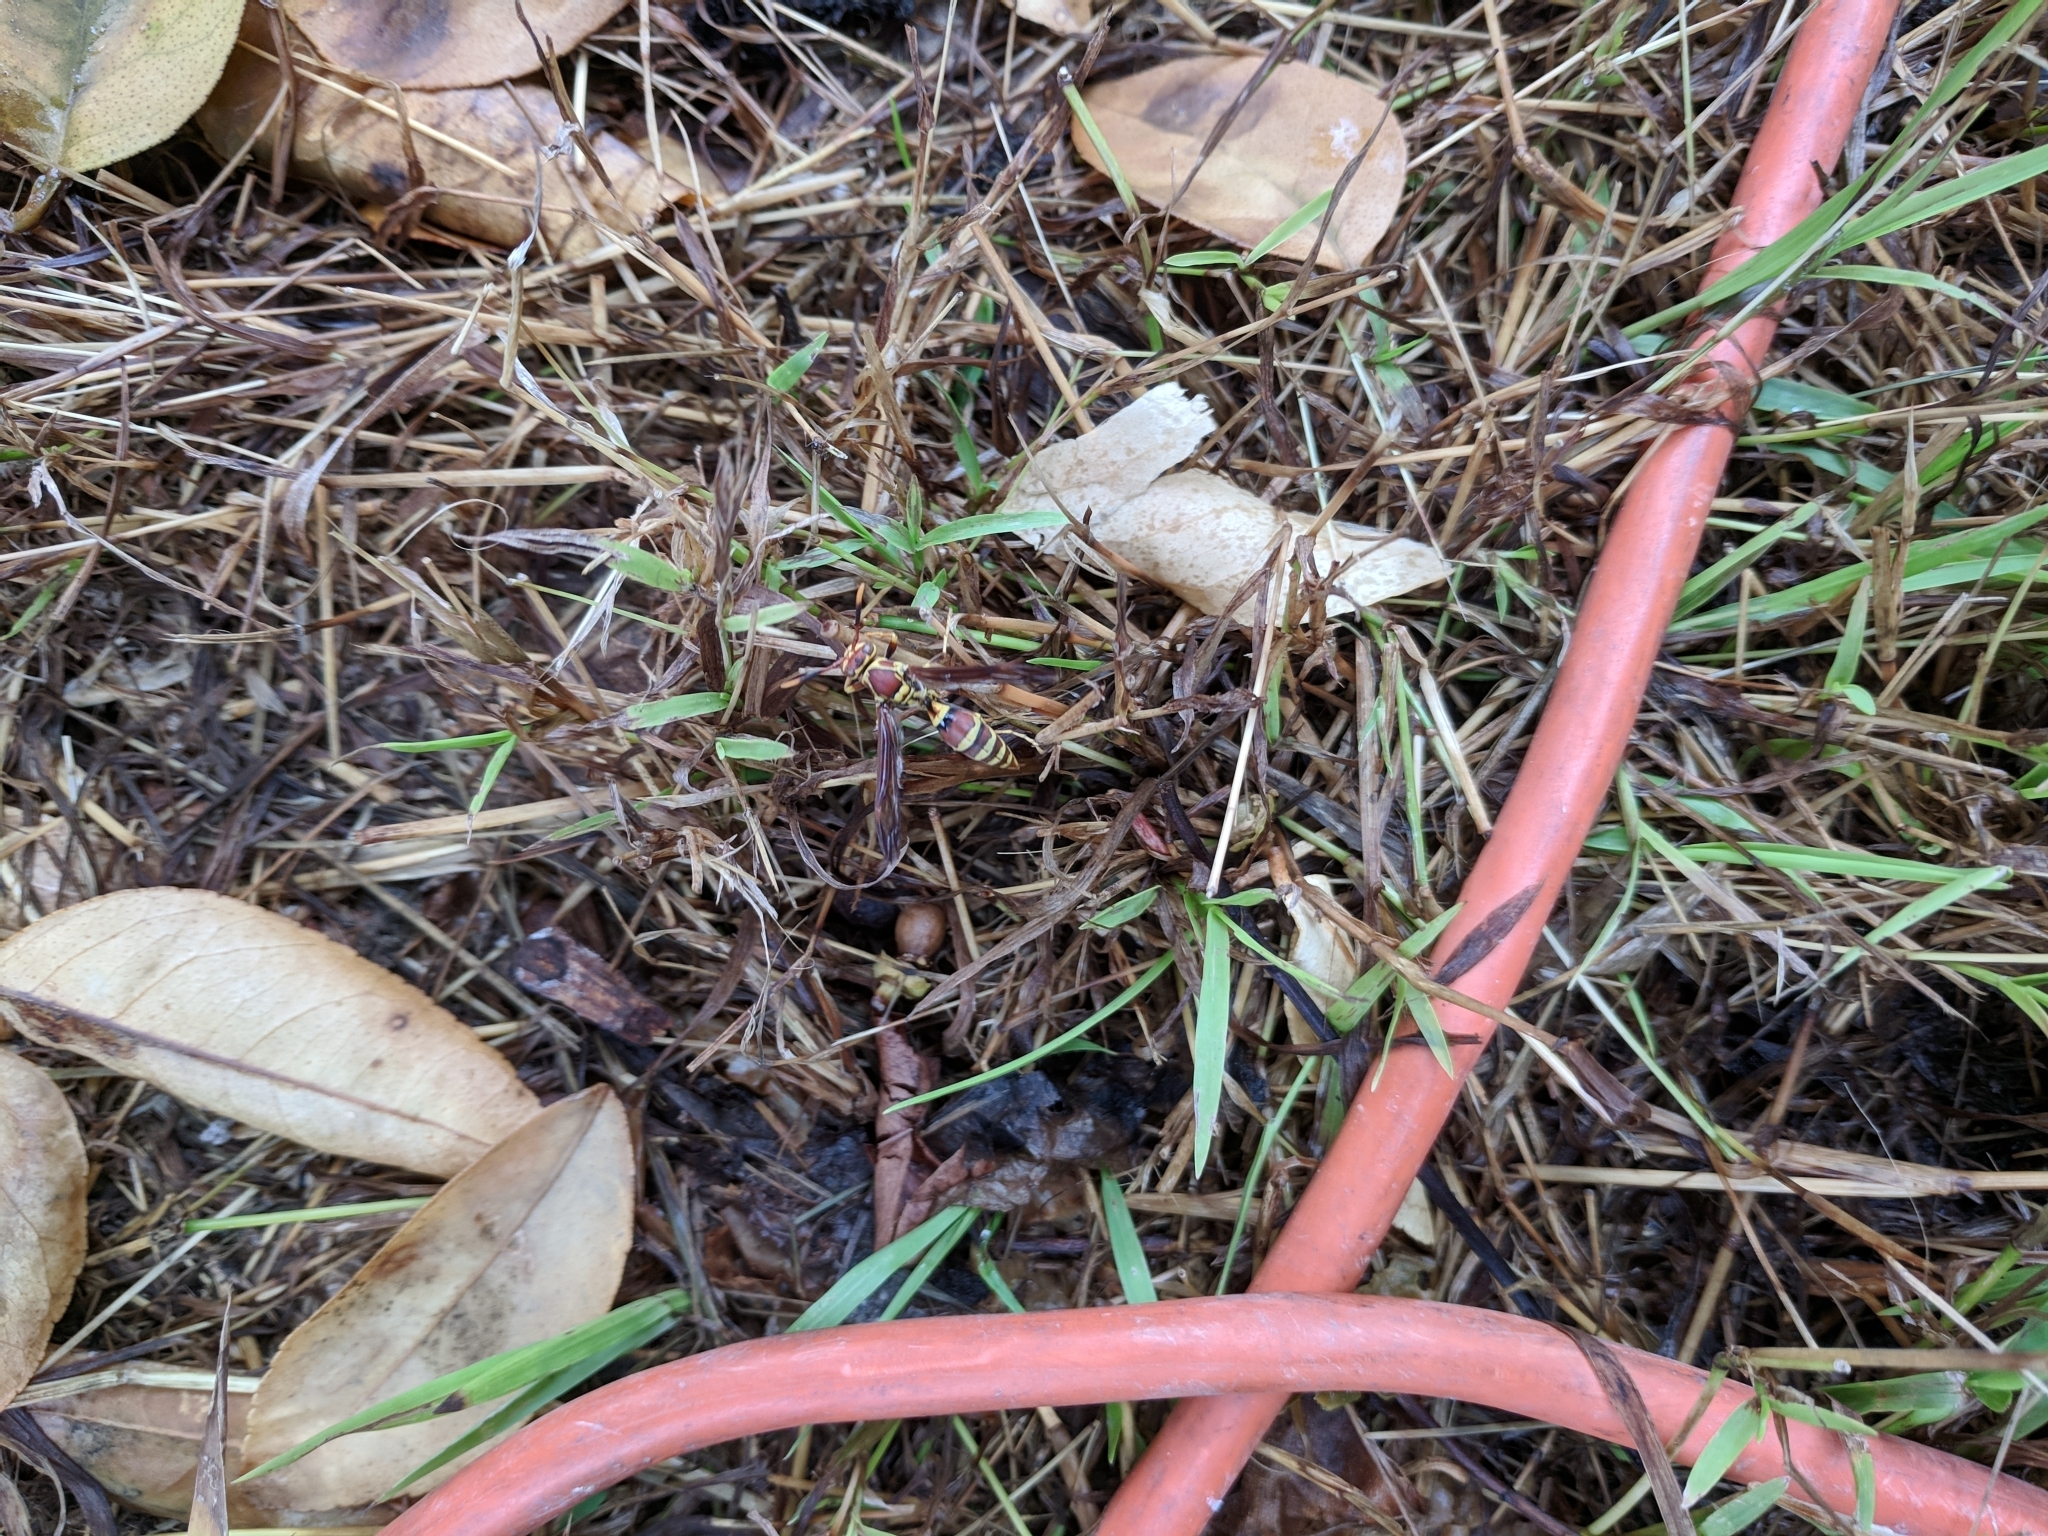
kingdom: Animalia
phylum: Arthropoda
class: Insecta
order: Hymenoptera
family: Eumenidae
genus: Polistes
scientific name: Polistes exclamans
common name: Paper wasp
